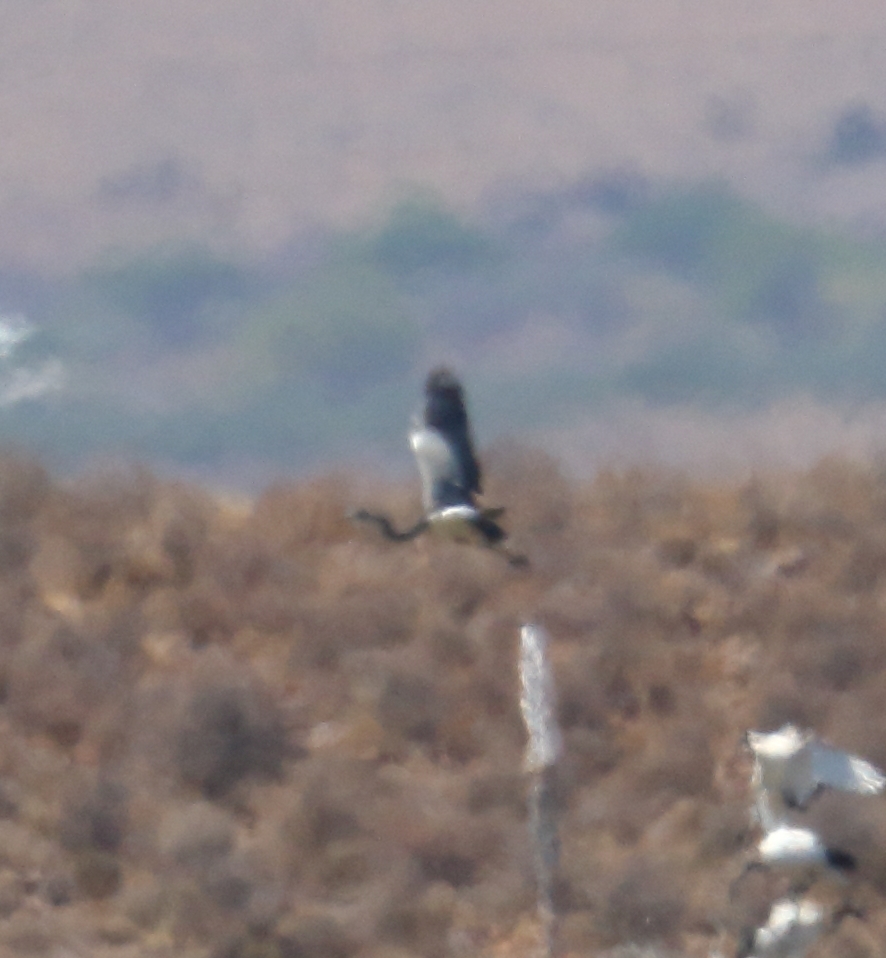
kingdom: Animalia
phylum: Chordata
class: Aves
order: Pelecaniformes
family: Ardeidae
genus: Ardea
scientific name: Ardea melanocephala
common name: Black-headed heron
